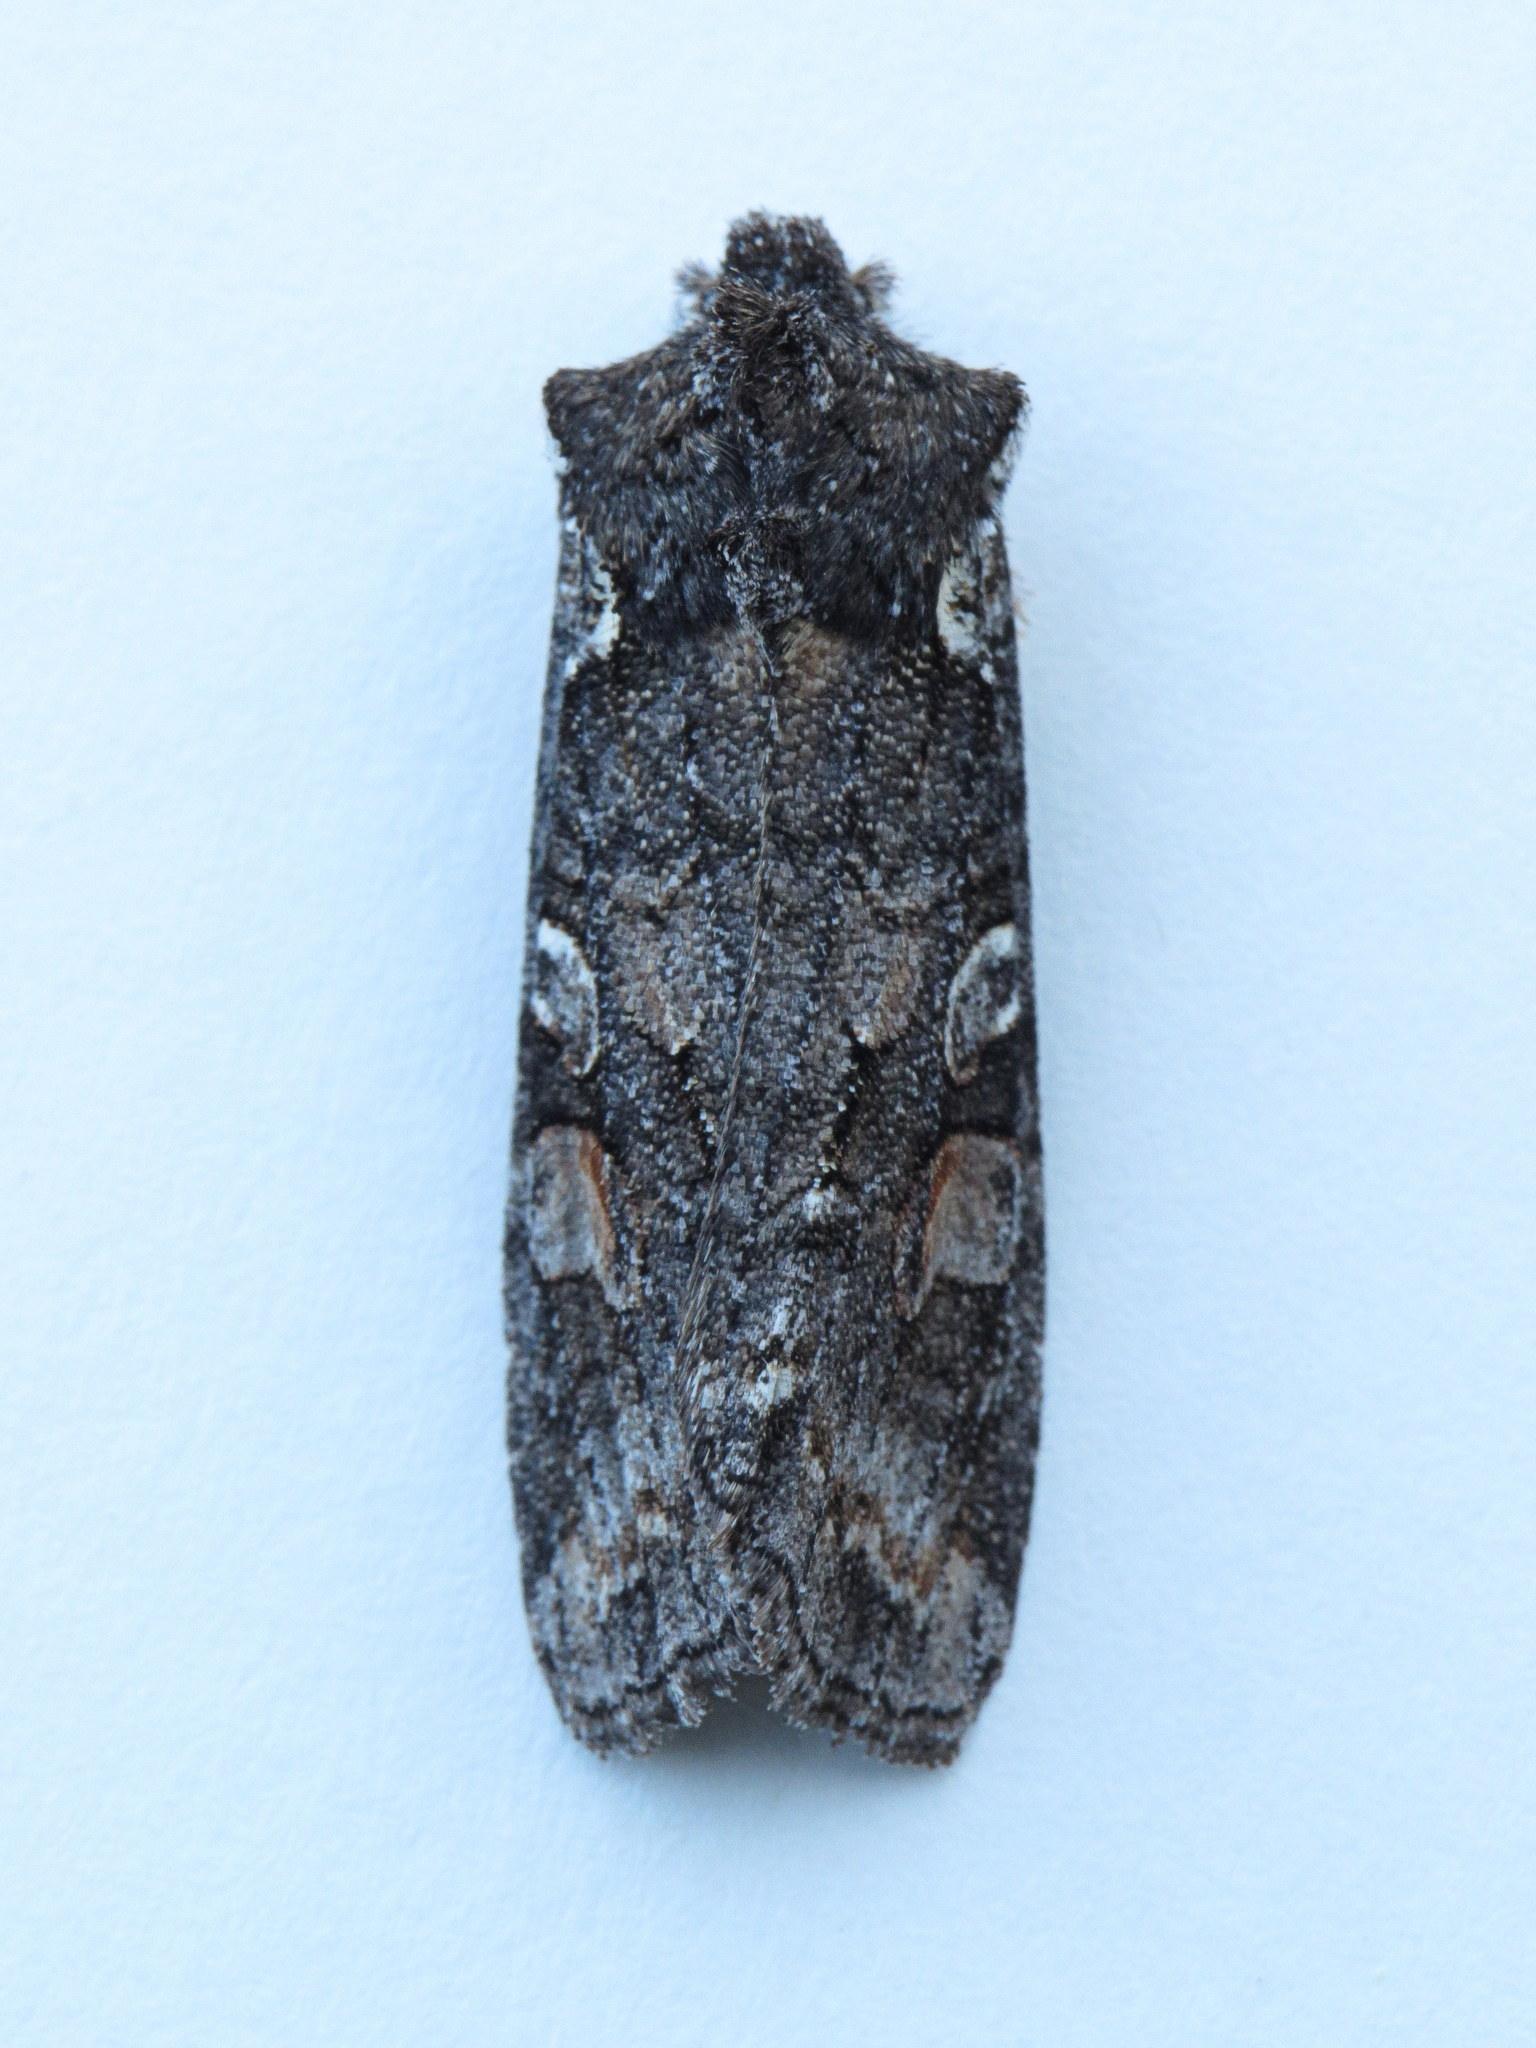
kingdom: Animalia
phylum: Arthropoda
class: Insecta
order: Lepidoptera
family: Noctuidae
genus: Lithophane
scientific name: Lithophane pexata
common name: Plush-naped pinion moth
